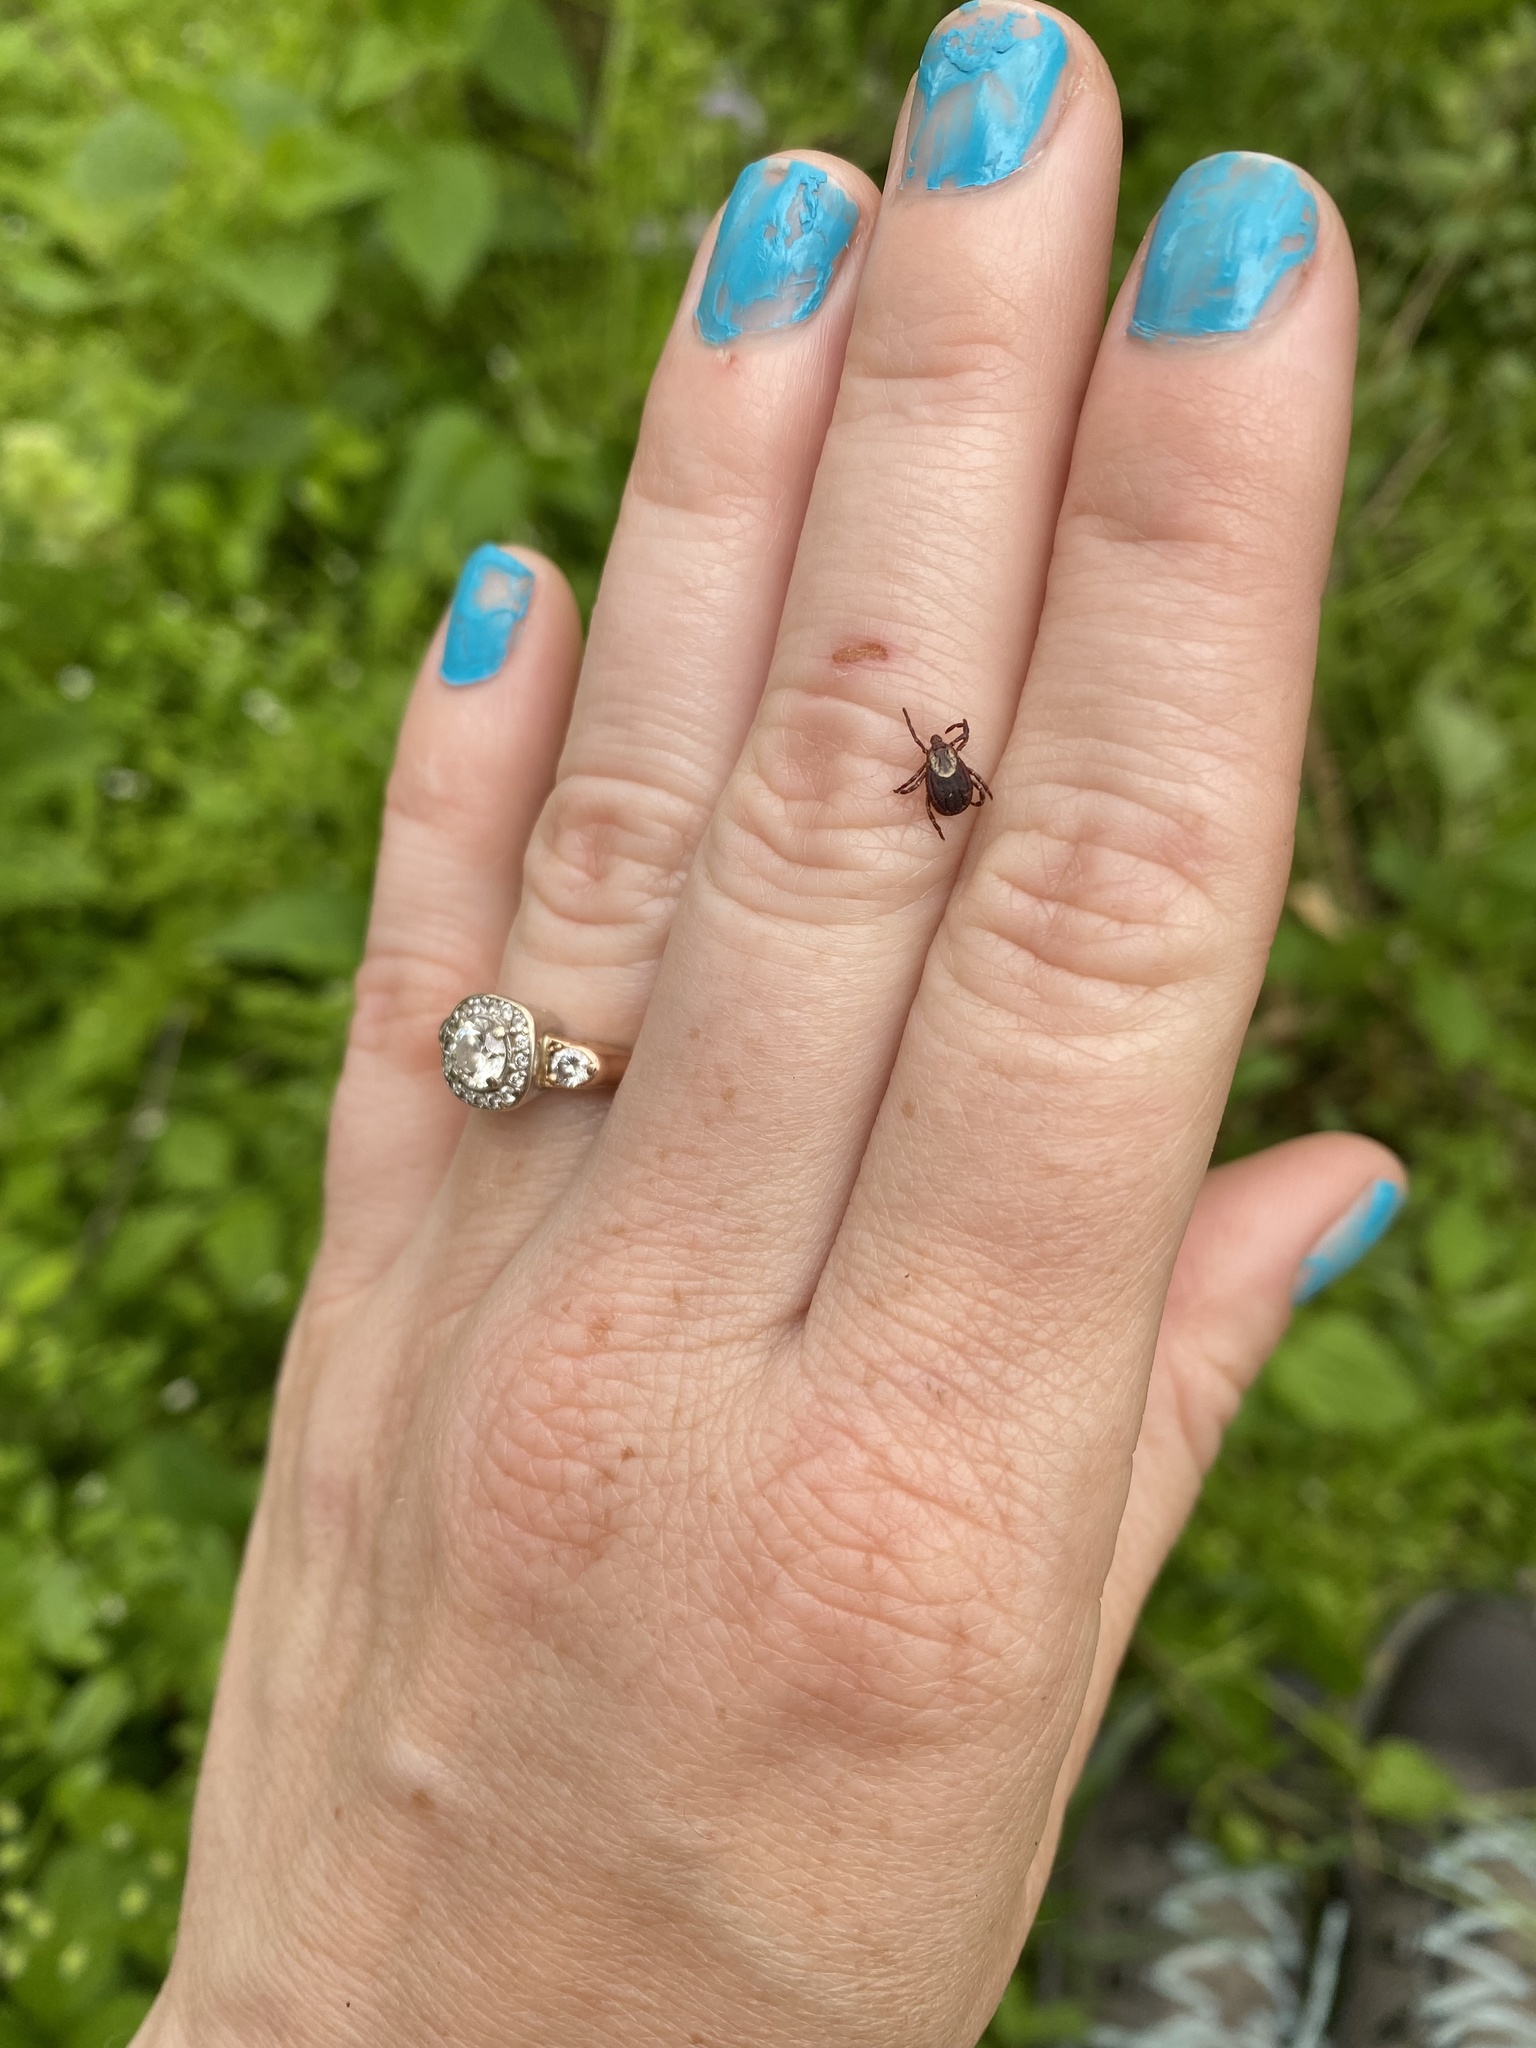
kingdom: Animalia
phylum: Arthropoda
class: Arachnida
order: Ixodida
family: Ixodidae
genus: Dermacentor
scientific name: Dermacentor variabilis
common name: American dog tick
